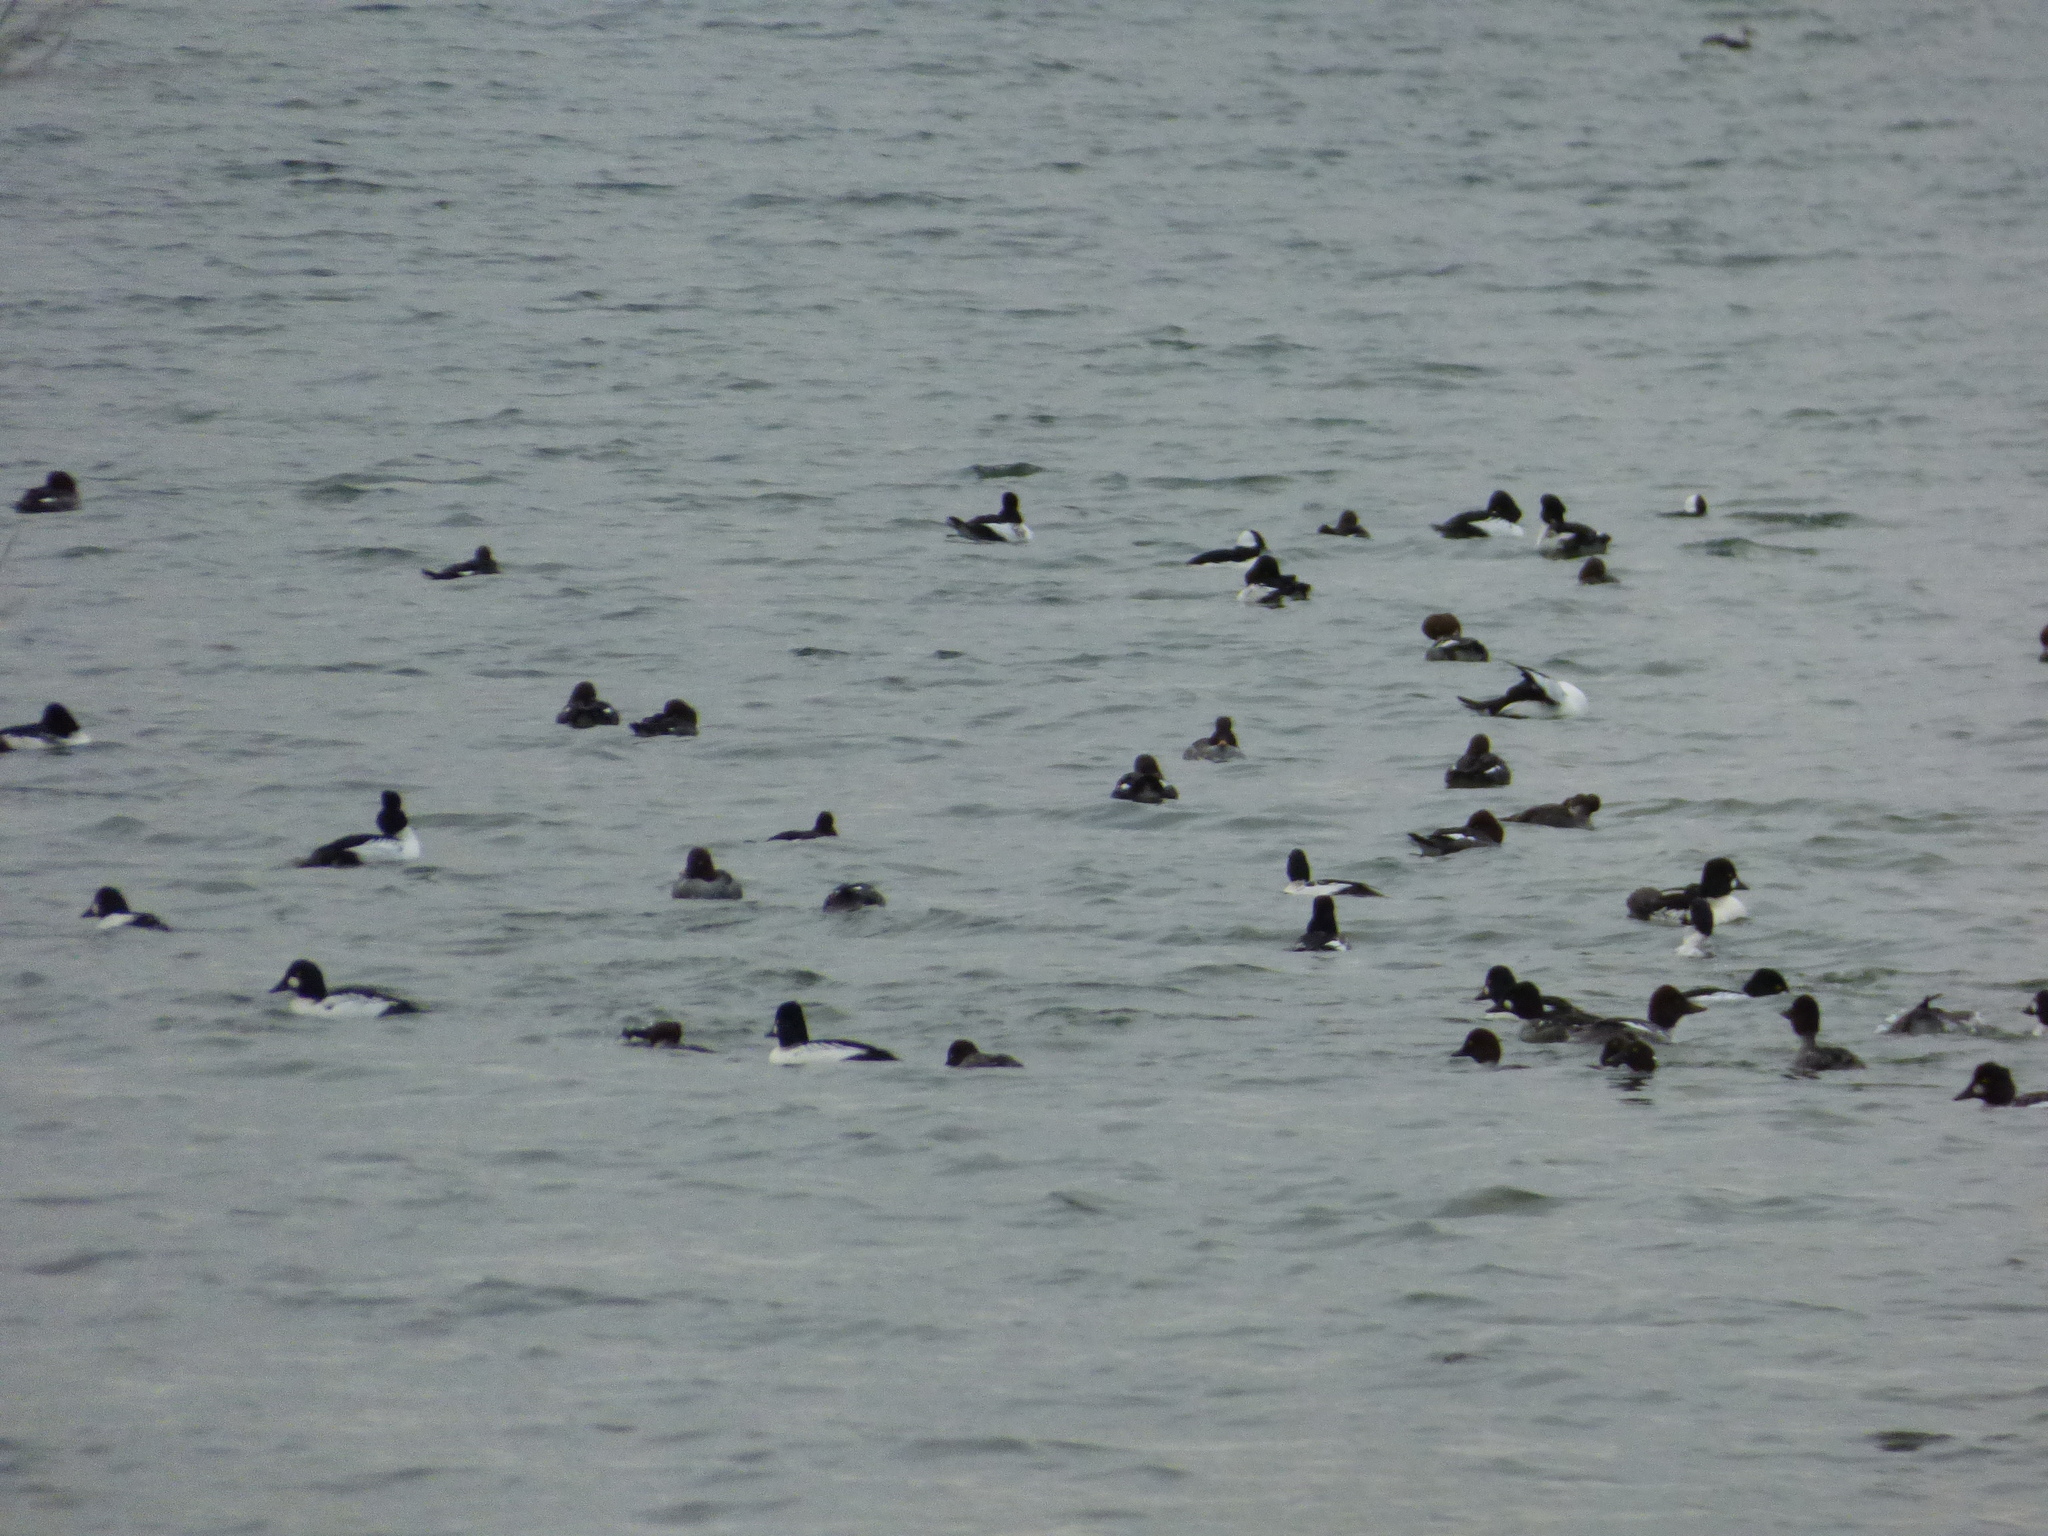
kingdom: Animalia
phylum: Chordata
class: Aves
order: Anseriformes
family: Anatidae
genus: Bucephala
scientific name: Bucephala clangula
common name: Common goldeneye
